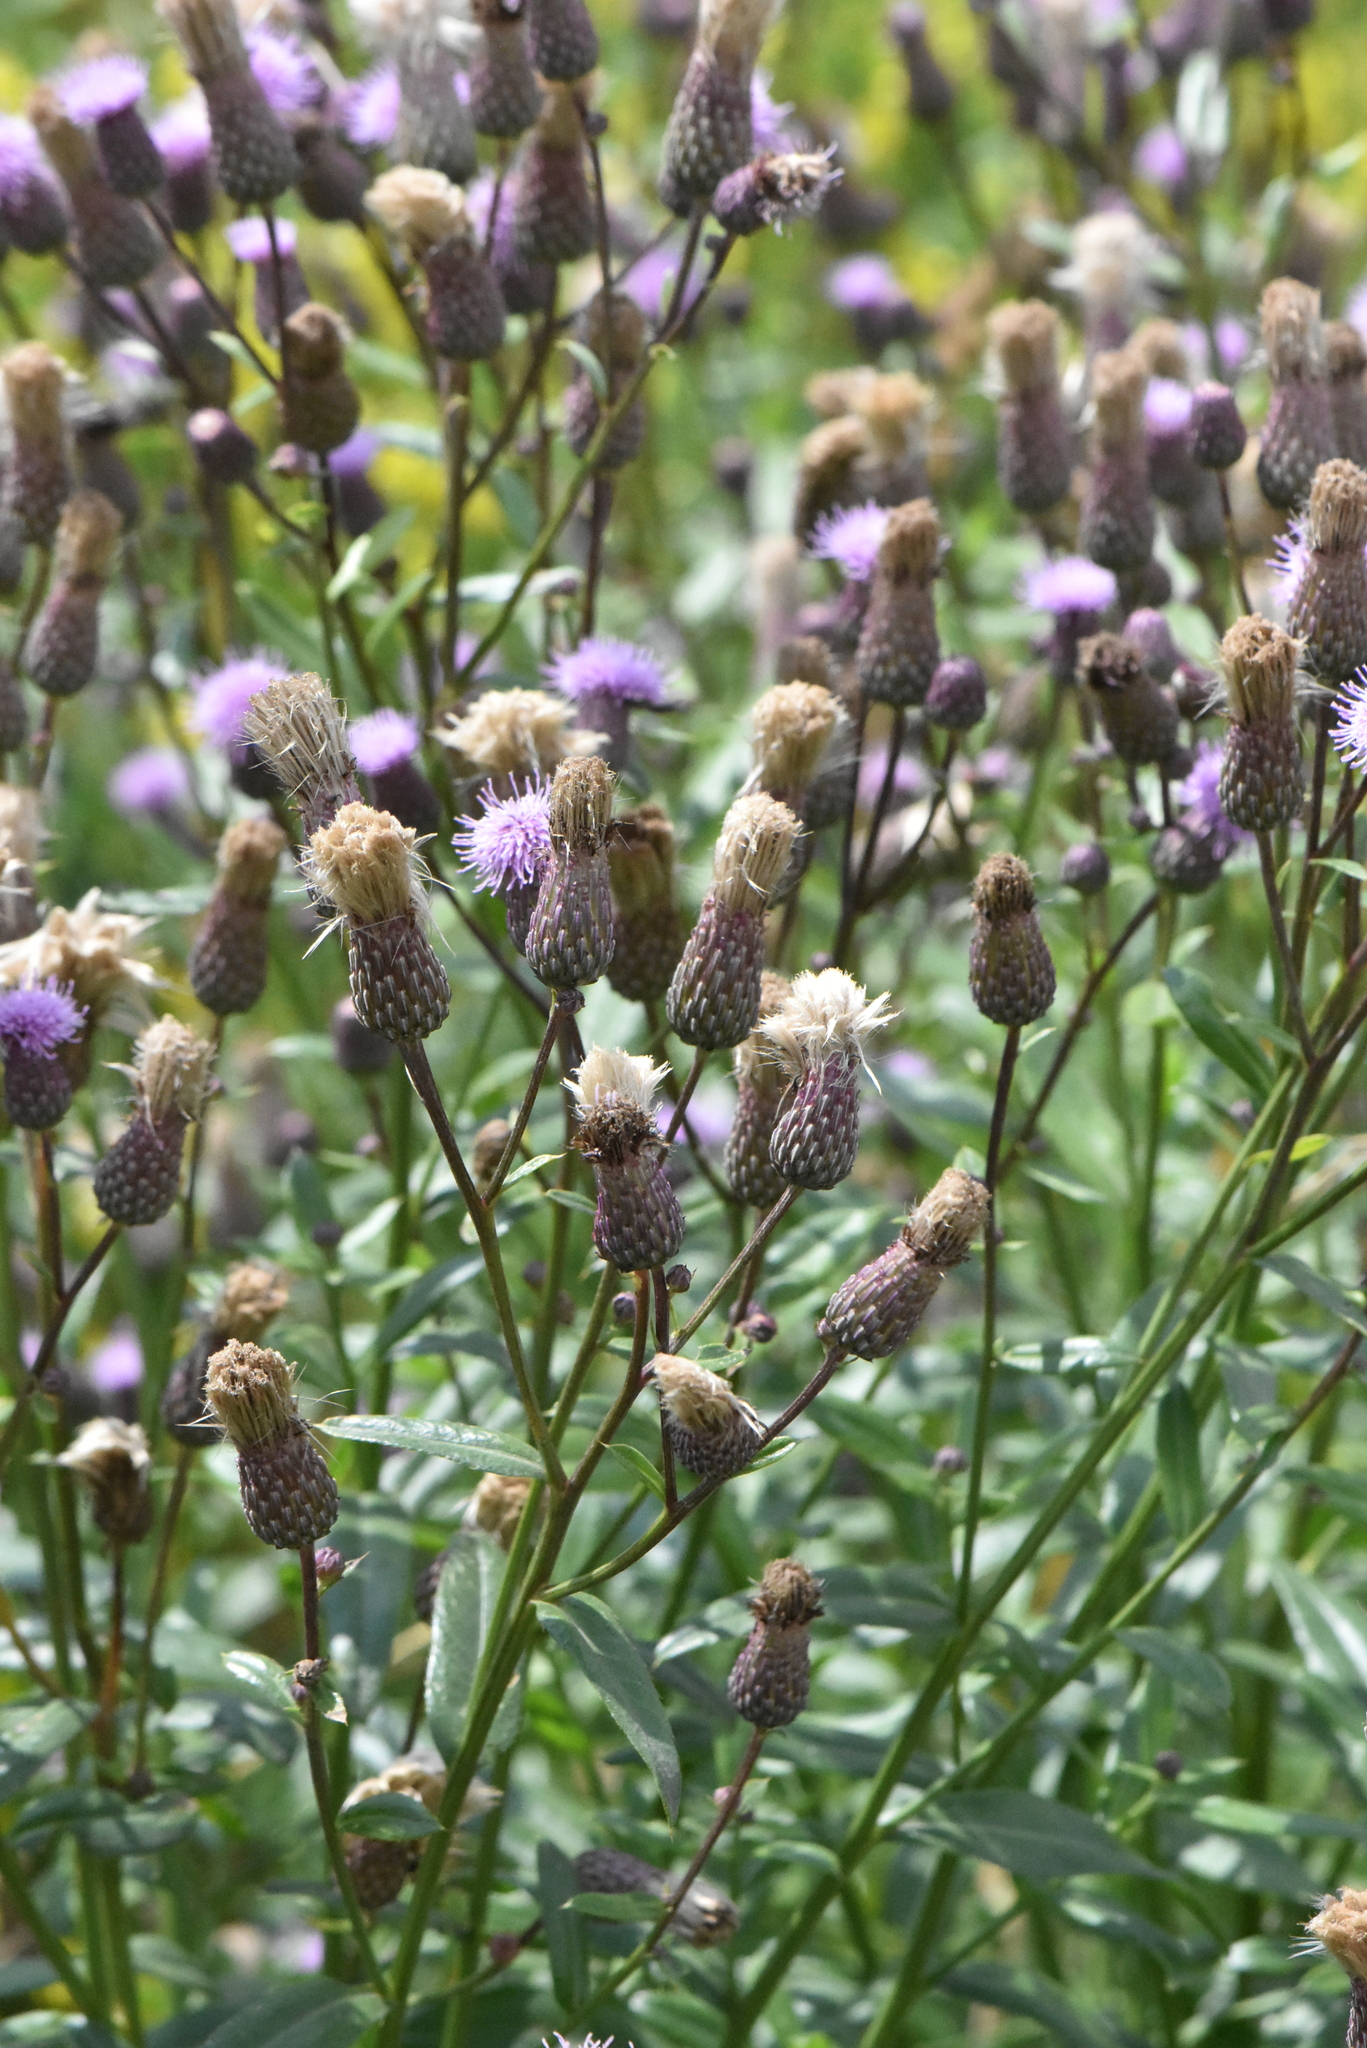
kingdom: Plantae
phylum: Tracheophyta
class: Magnoliopsida
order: Asterales
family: Asteraceae
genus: Cirsium
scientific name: Cirsium arvense
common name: Creeping thistle
